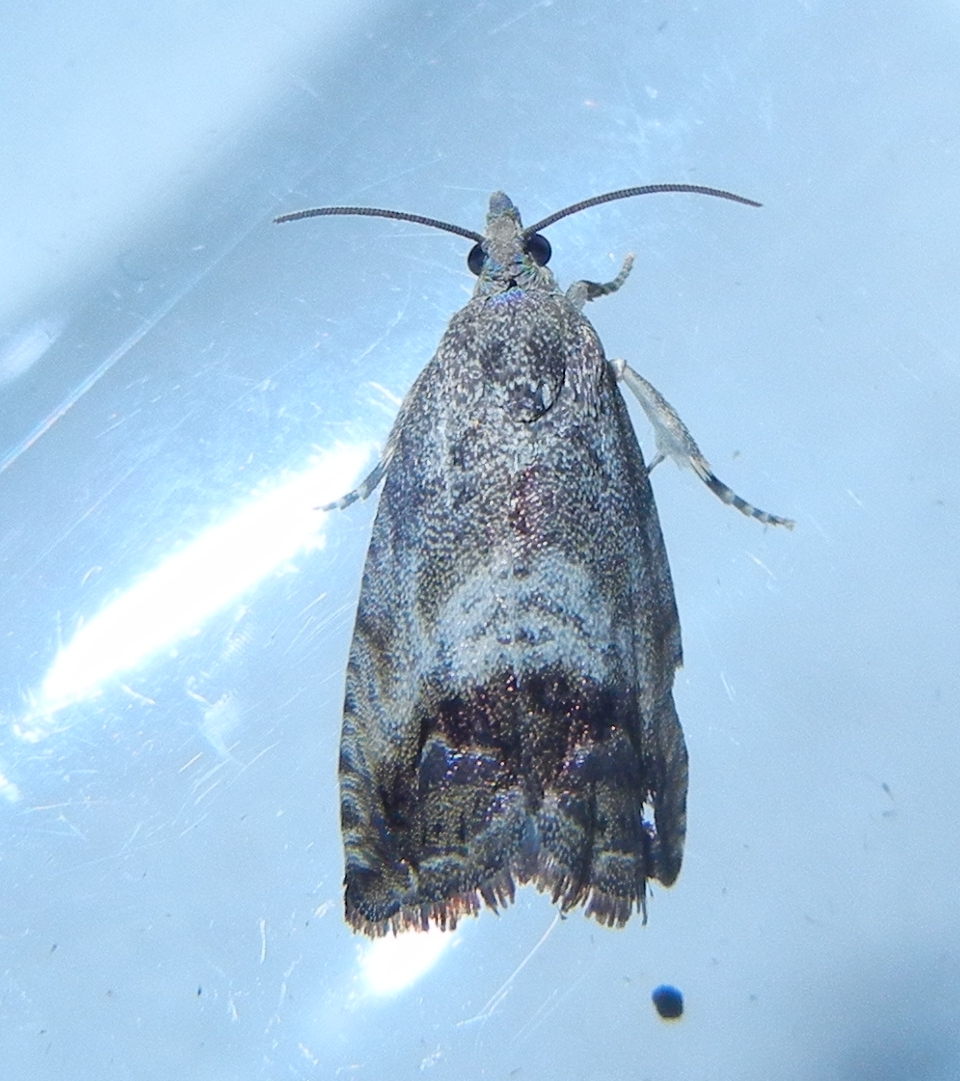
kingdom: Animalia
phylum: Arthropoda
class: Insecta
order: Lepidoptera
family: Tortricidae
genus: Cydia
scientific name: Cydia splendana
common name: De: kastanienwickler, eichenwickler es: oruga de la castaña fr: carpocapse des châtaignes it: cidia o tortrice tardiva delle castagne pt: bichado das castanhas gb: acorn moth, chestnut fruit tortrix
